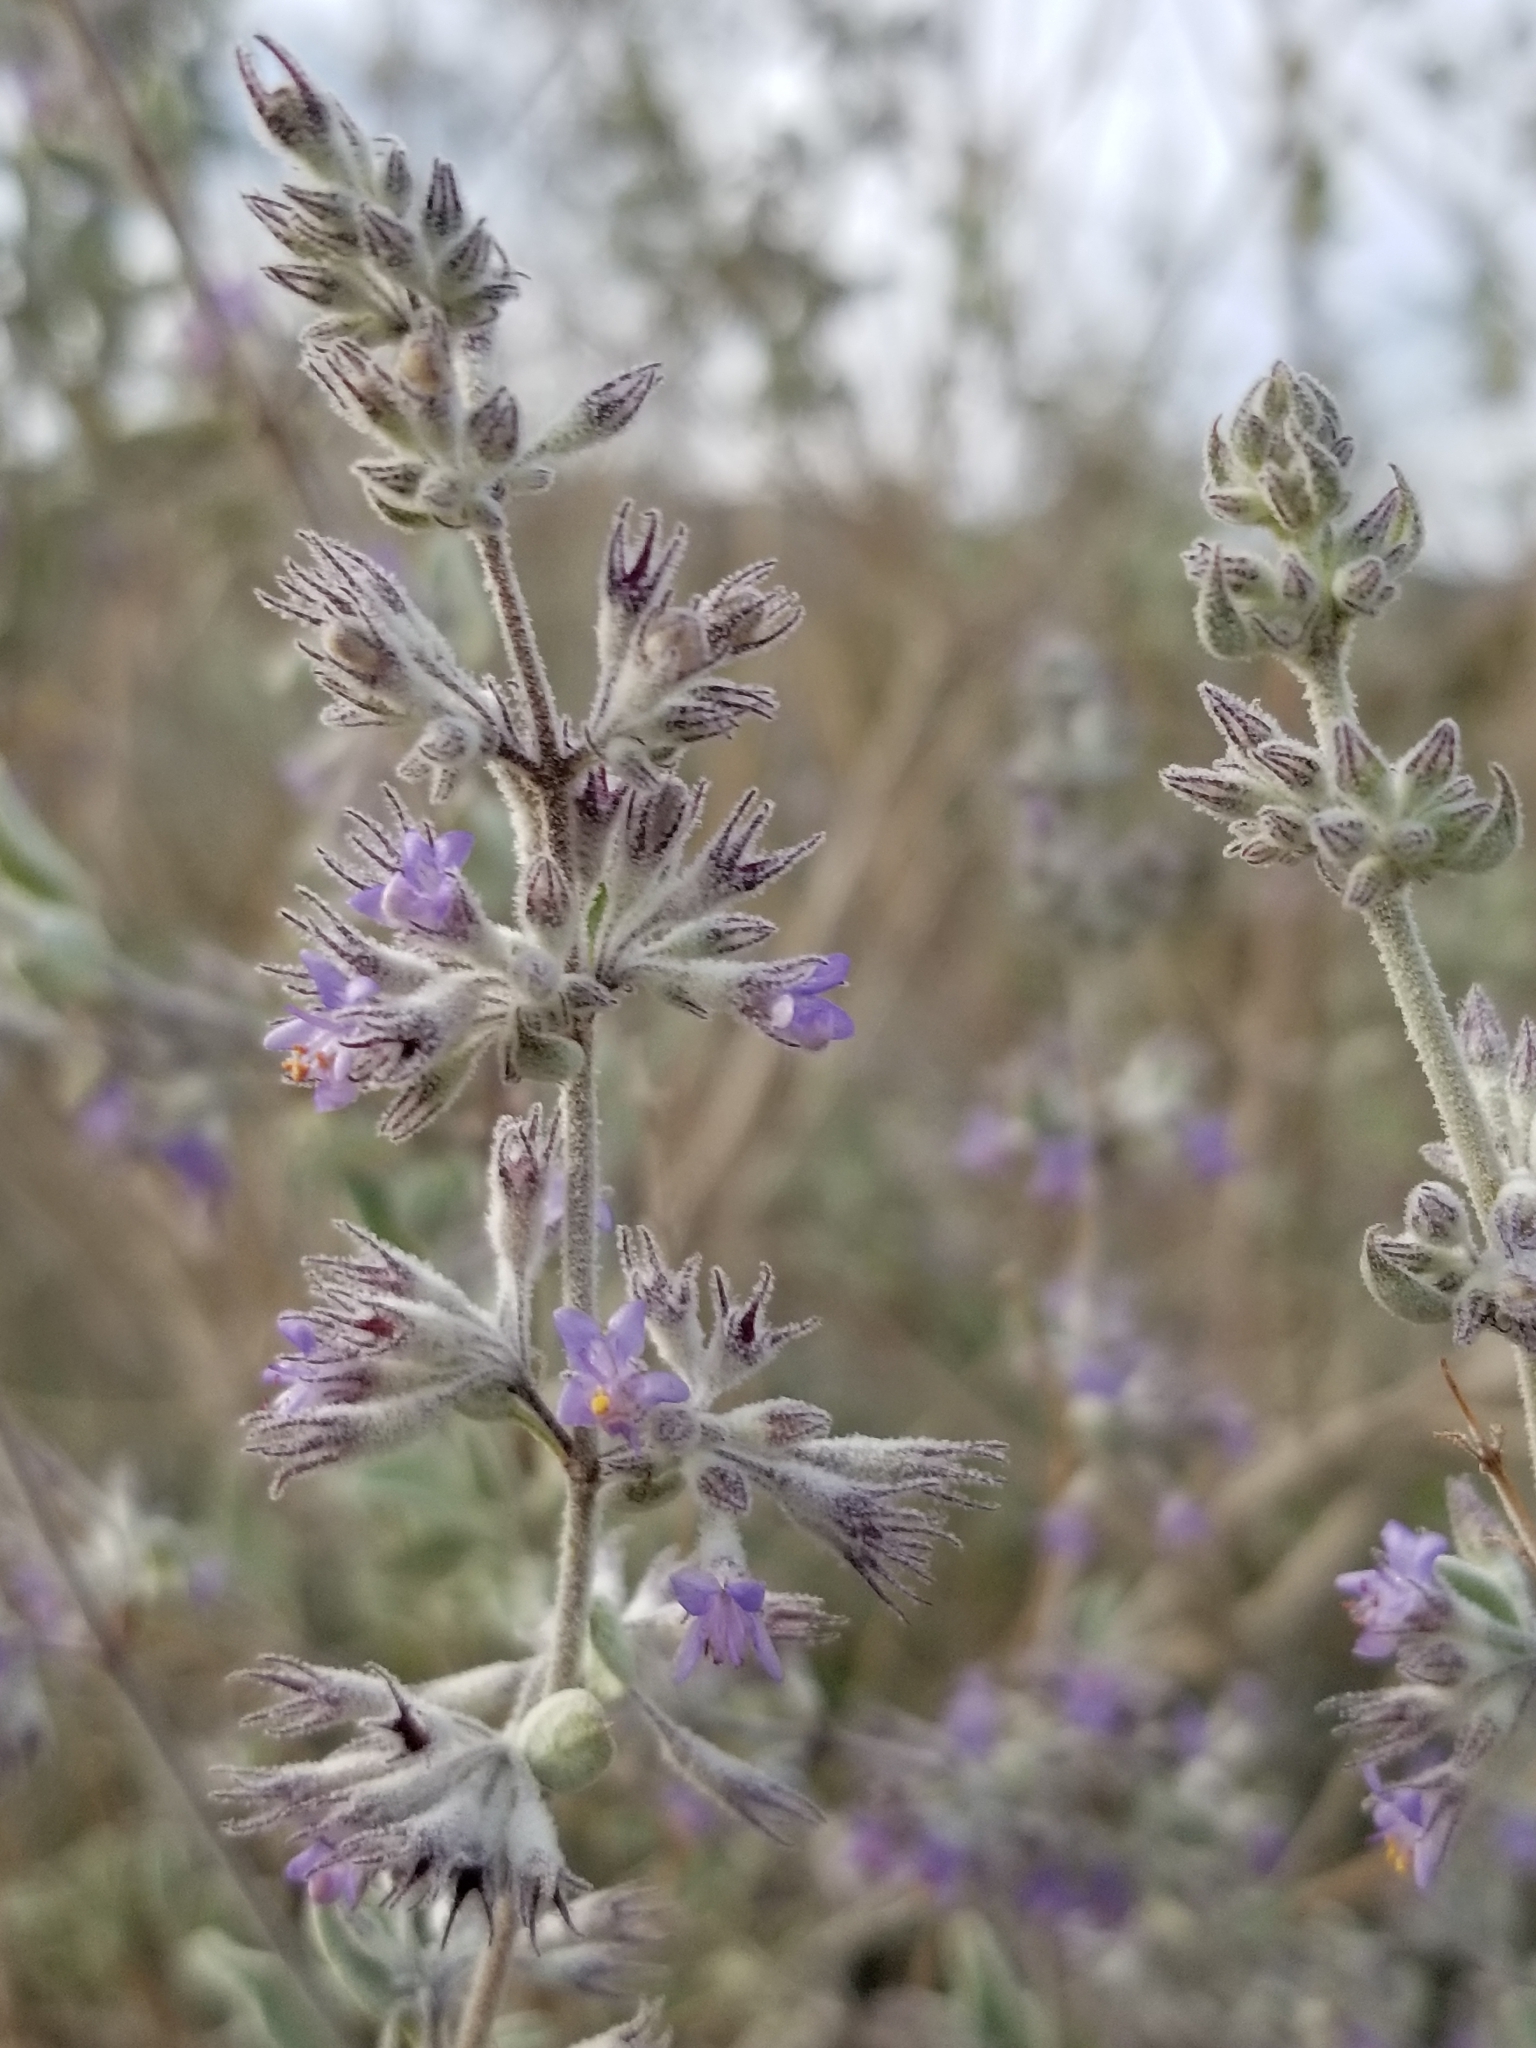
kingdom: Plantae
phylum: Tracheophyta
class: Magnoliopsida
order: Lamiales
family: Lamiaceae
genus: Condea
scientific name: Condea emoryi
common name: Chia
